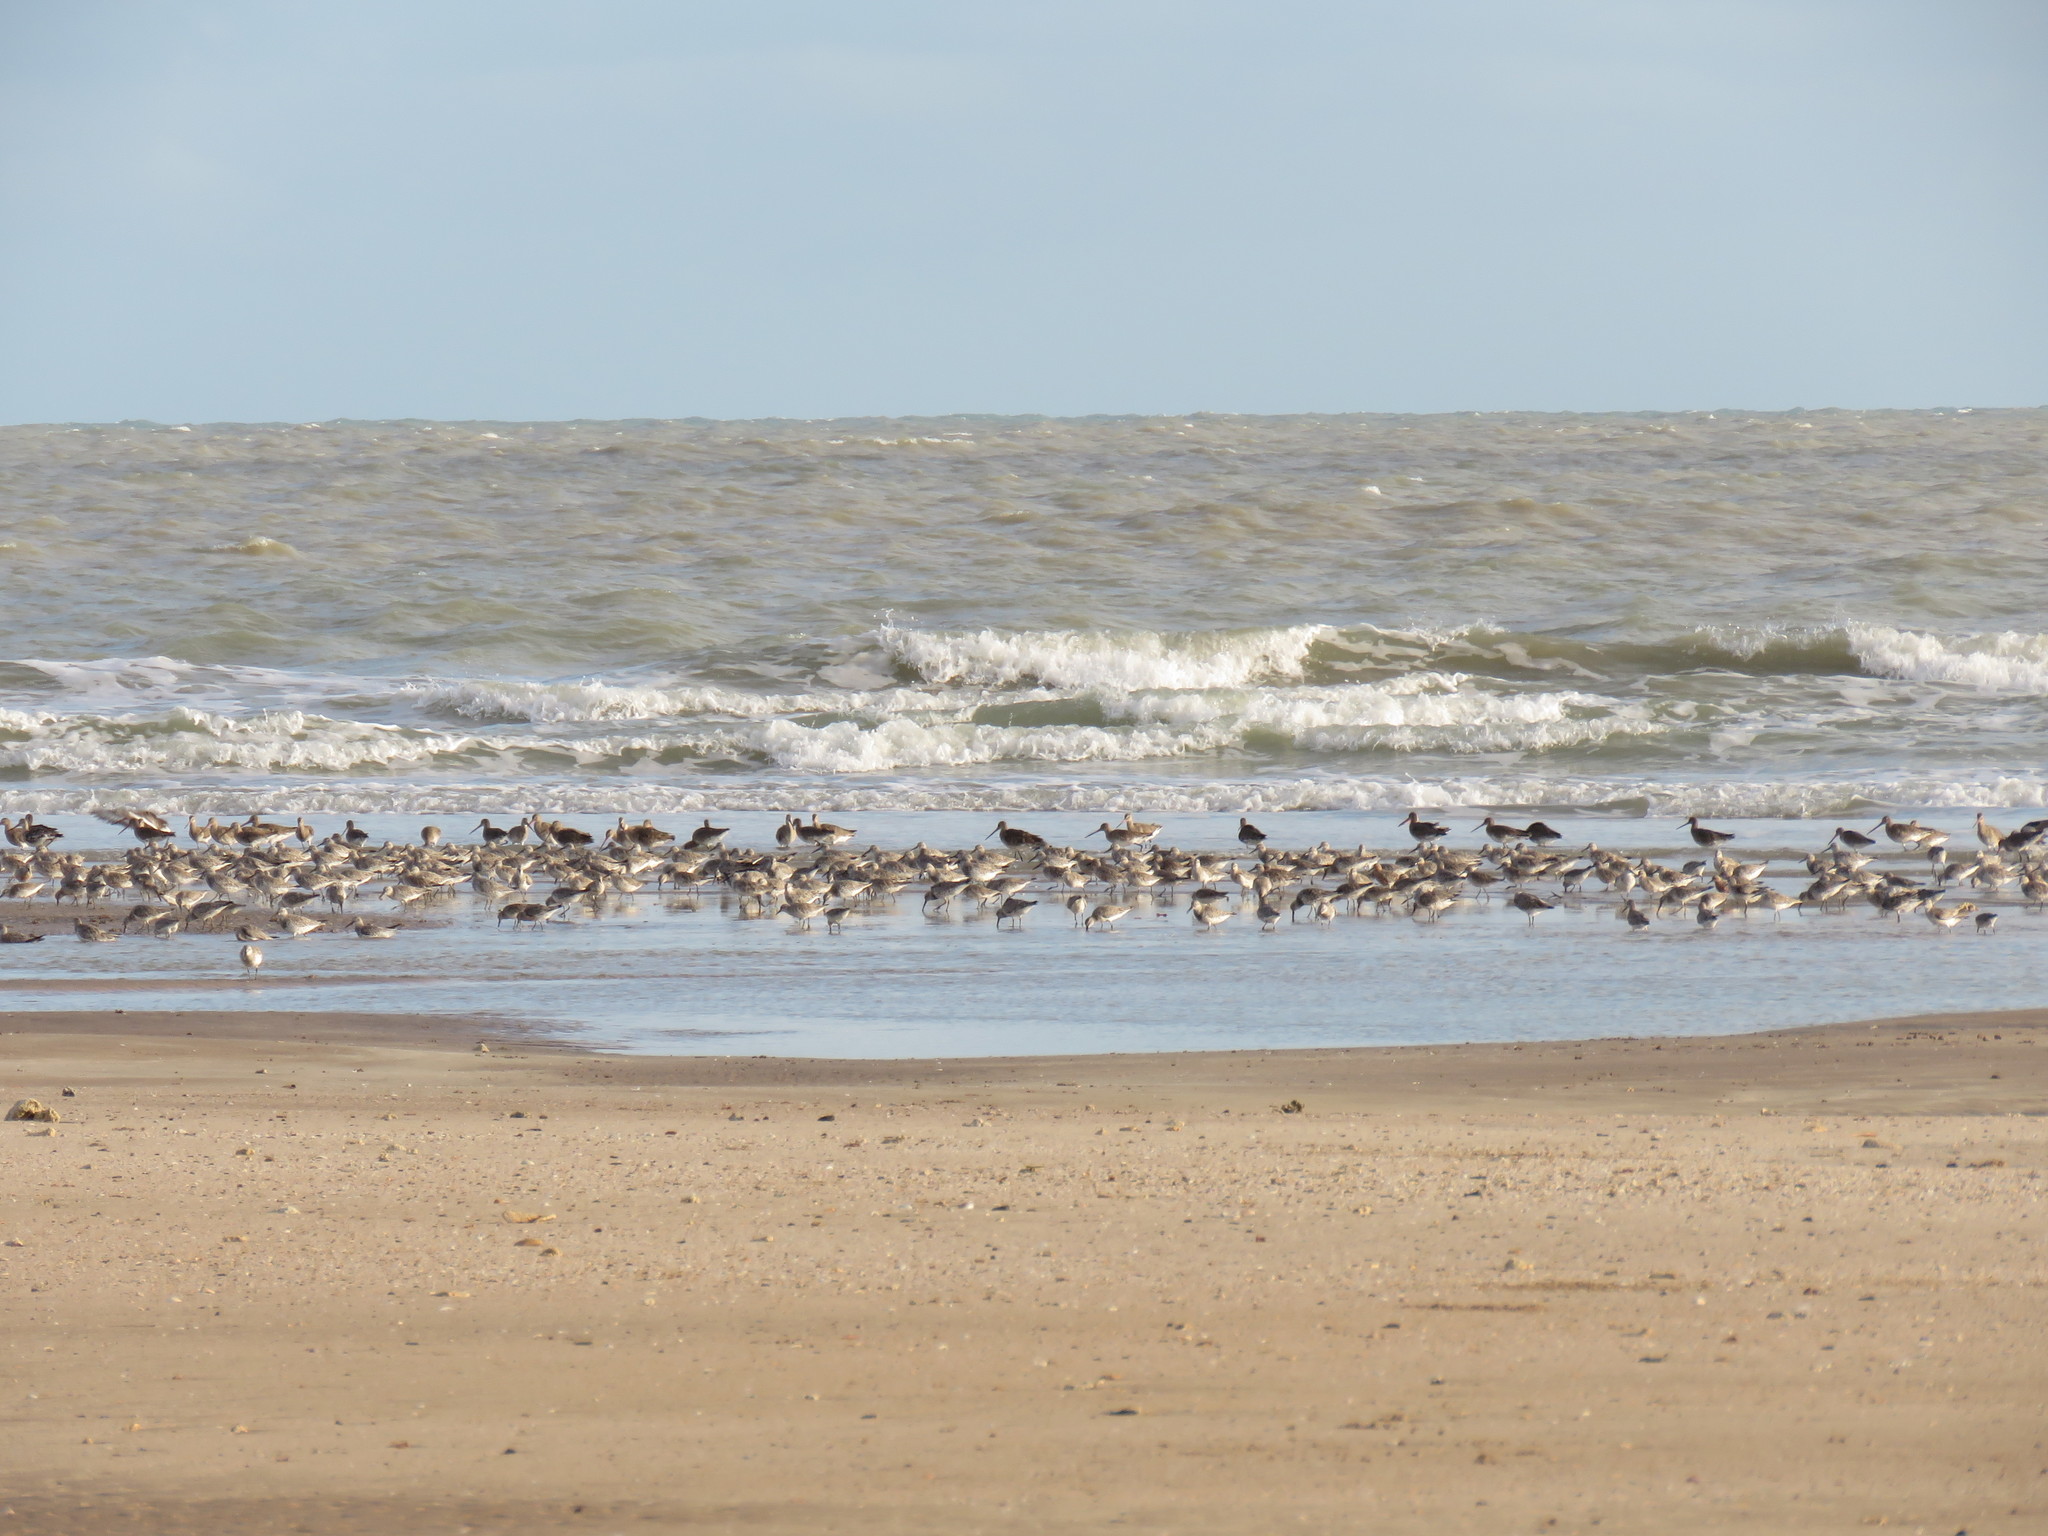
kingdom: Animalia
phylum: Chordata
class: Aves
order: Charadriiformes
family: Scolopacidae
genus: Limosa
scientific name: Limosa lapponica
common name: Bar-tailed godwit
